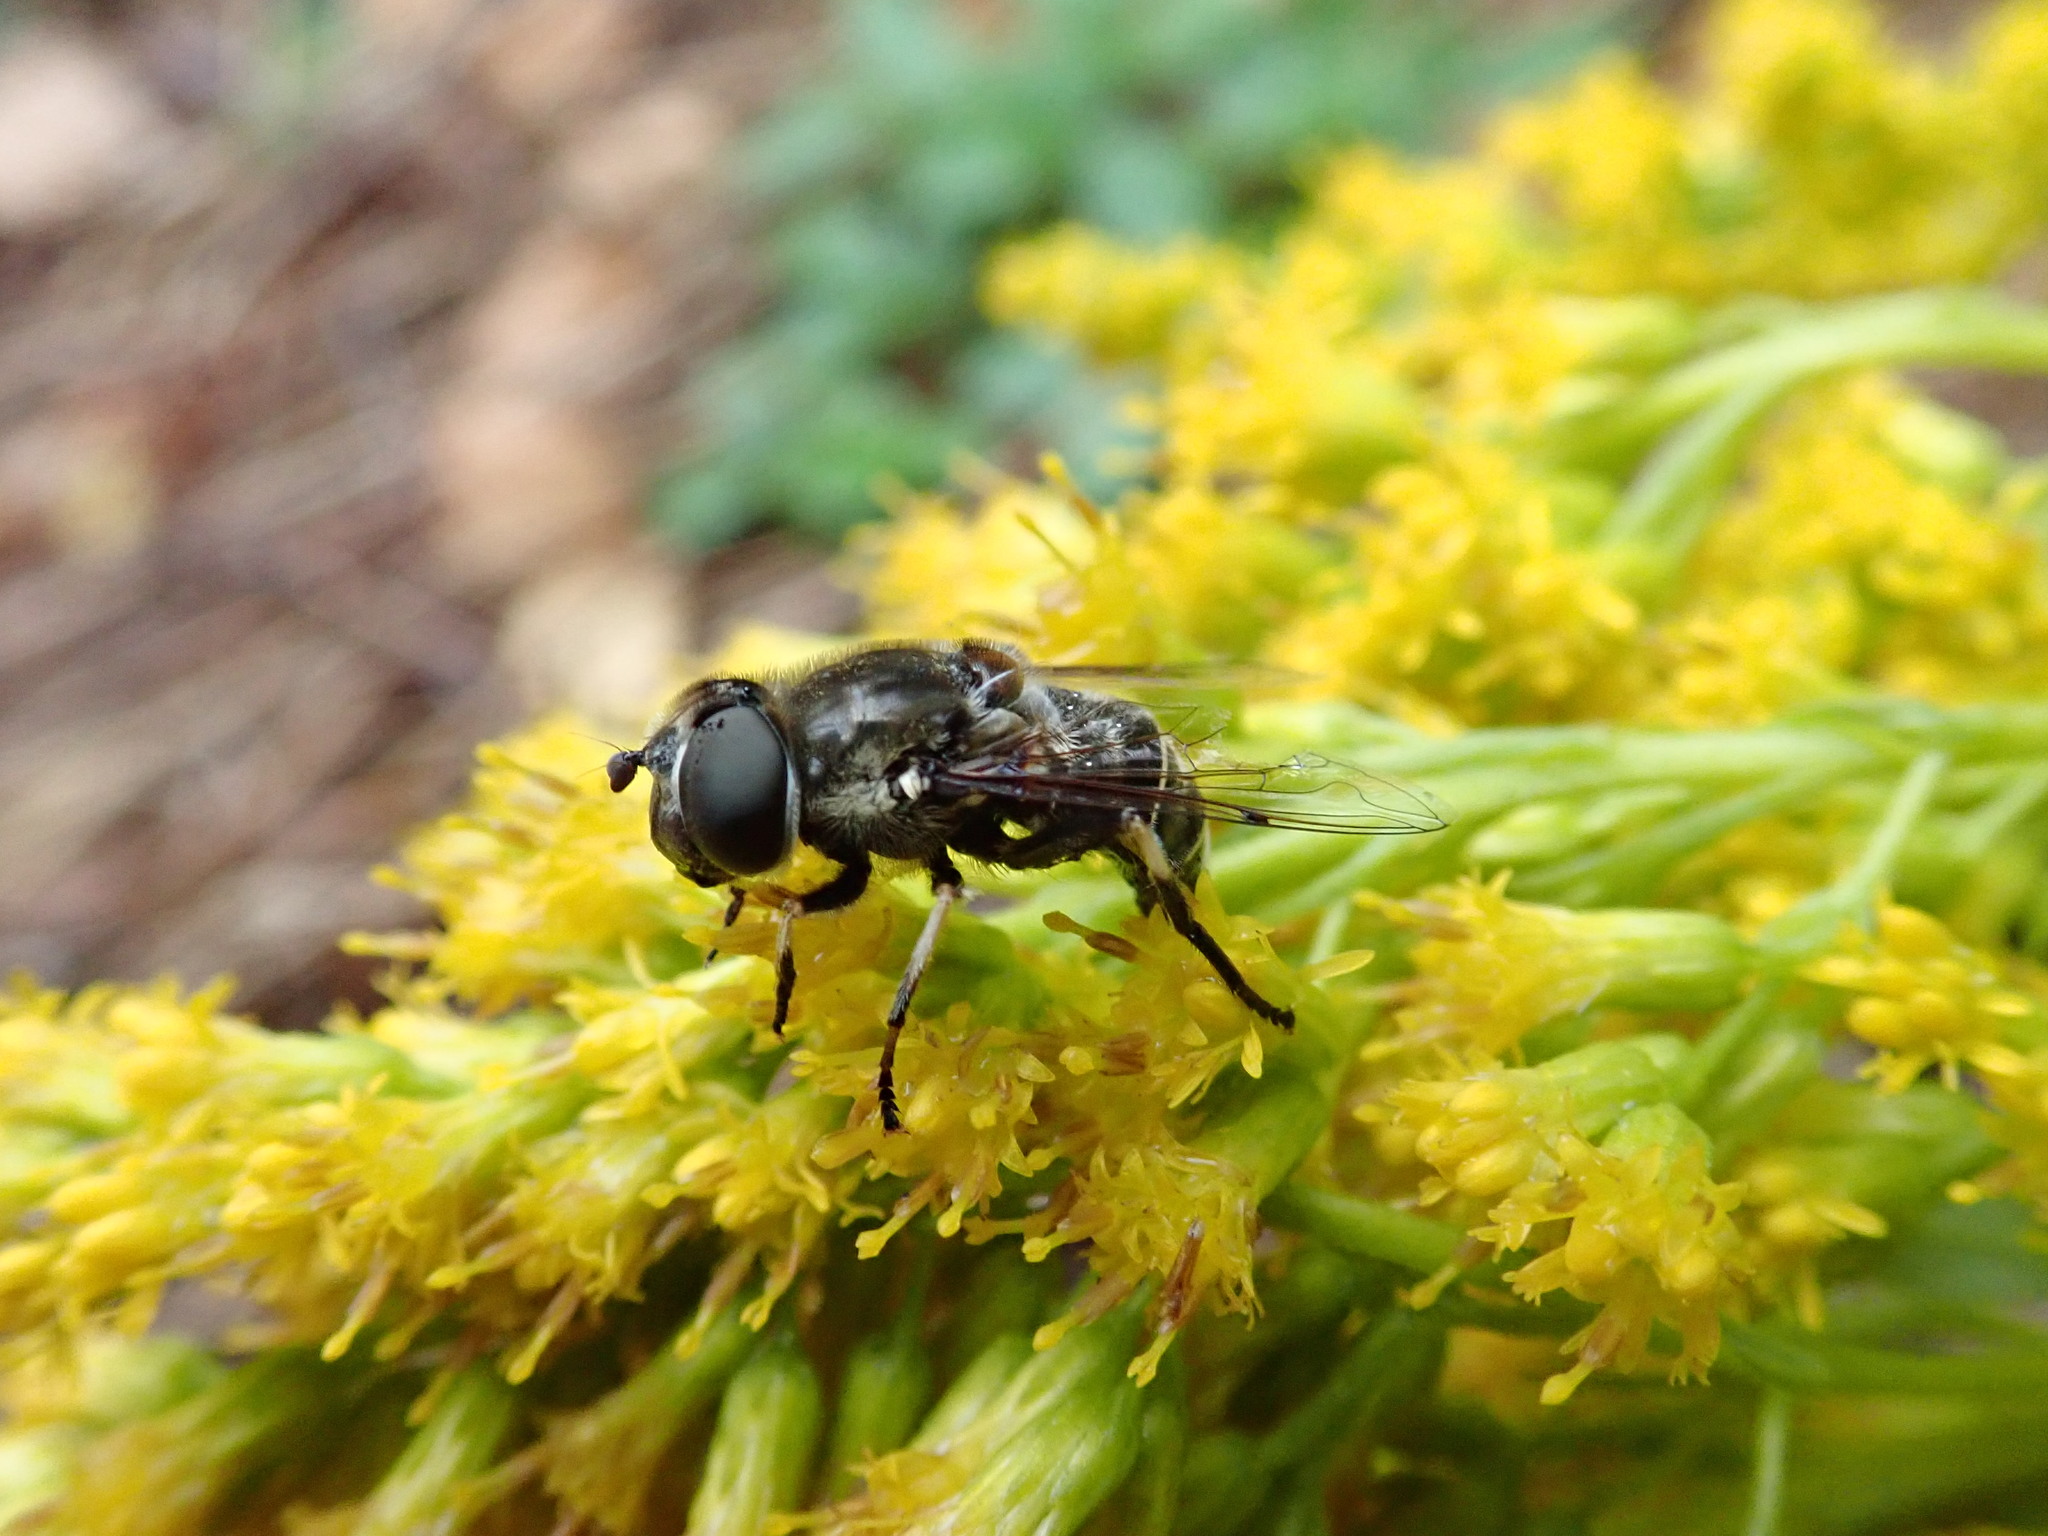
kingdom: Animalia
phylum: Arthropoda
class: Insecta
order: Diptera
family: Syrphidae
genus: Eristalis
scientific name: Eristalis dimidiata
